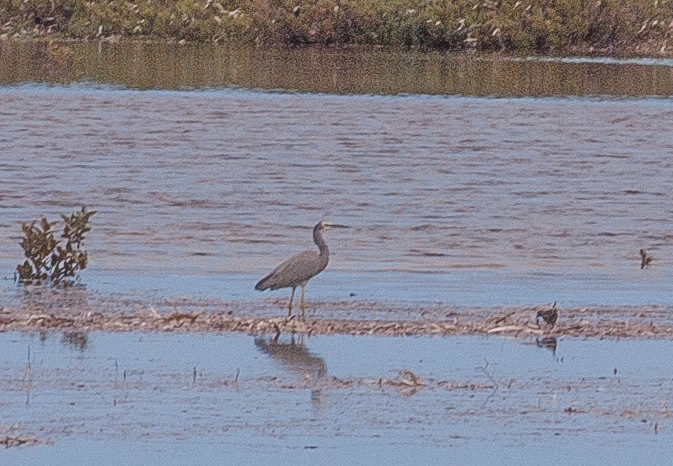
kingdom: Animalia
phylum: Chordata
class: Aves
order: Pelecaniformes
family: Ardeidae
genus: Egretta
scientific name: Egretta novaehollandiae
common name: White-faced heron
